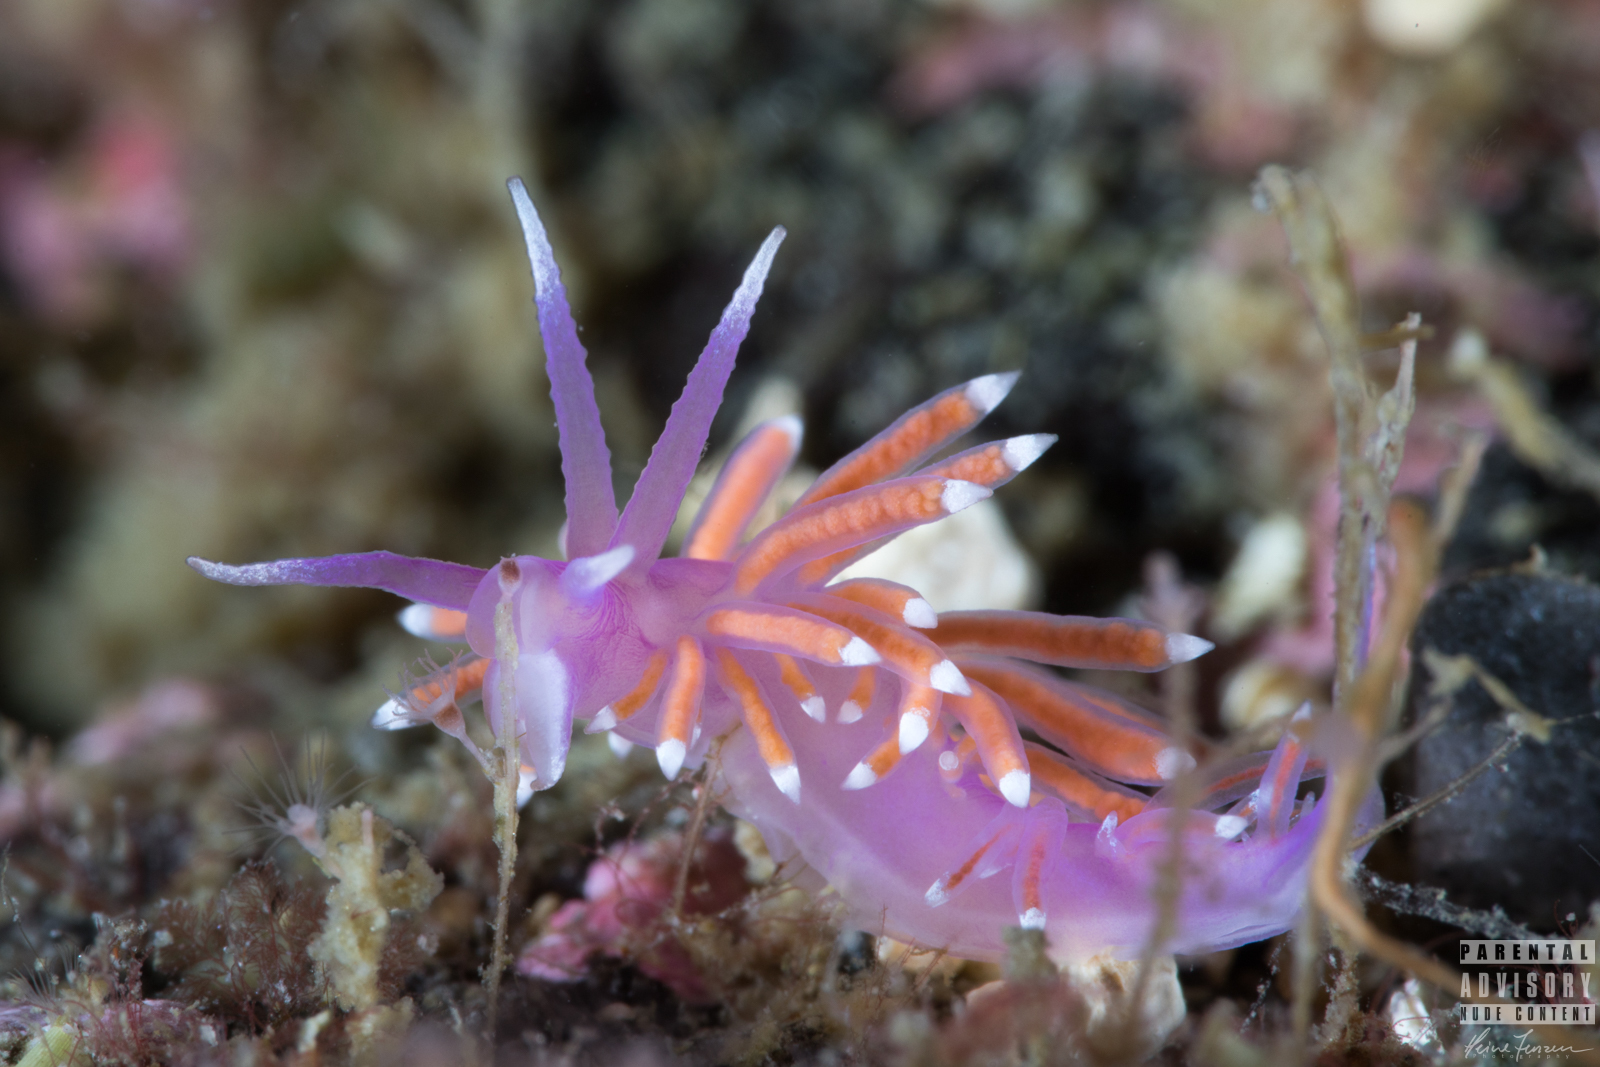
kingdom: Animalia
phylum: Mollusca
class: Gastropoda
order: Nudibranchia
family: Flabellinidae
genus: Edmundsella
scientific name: Edmundsella pedata
